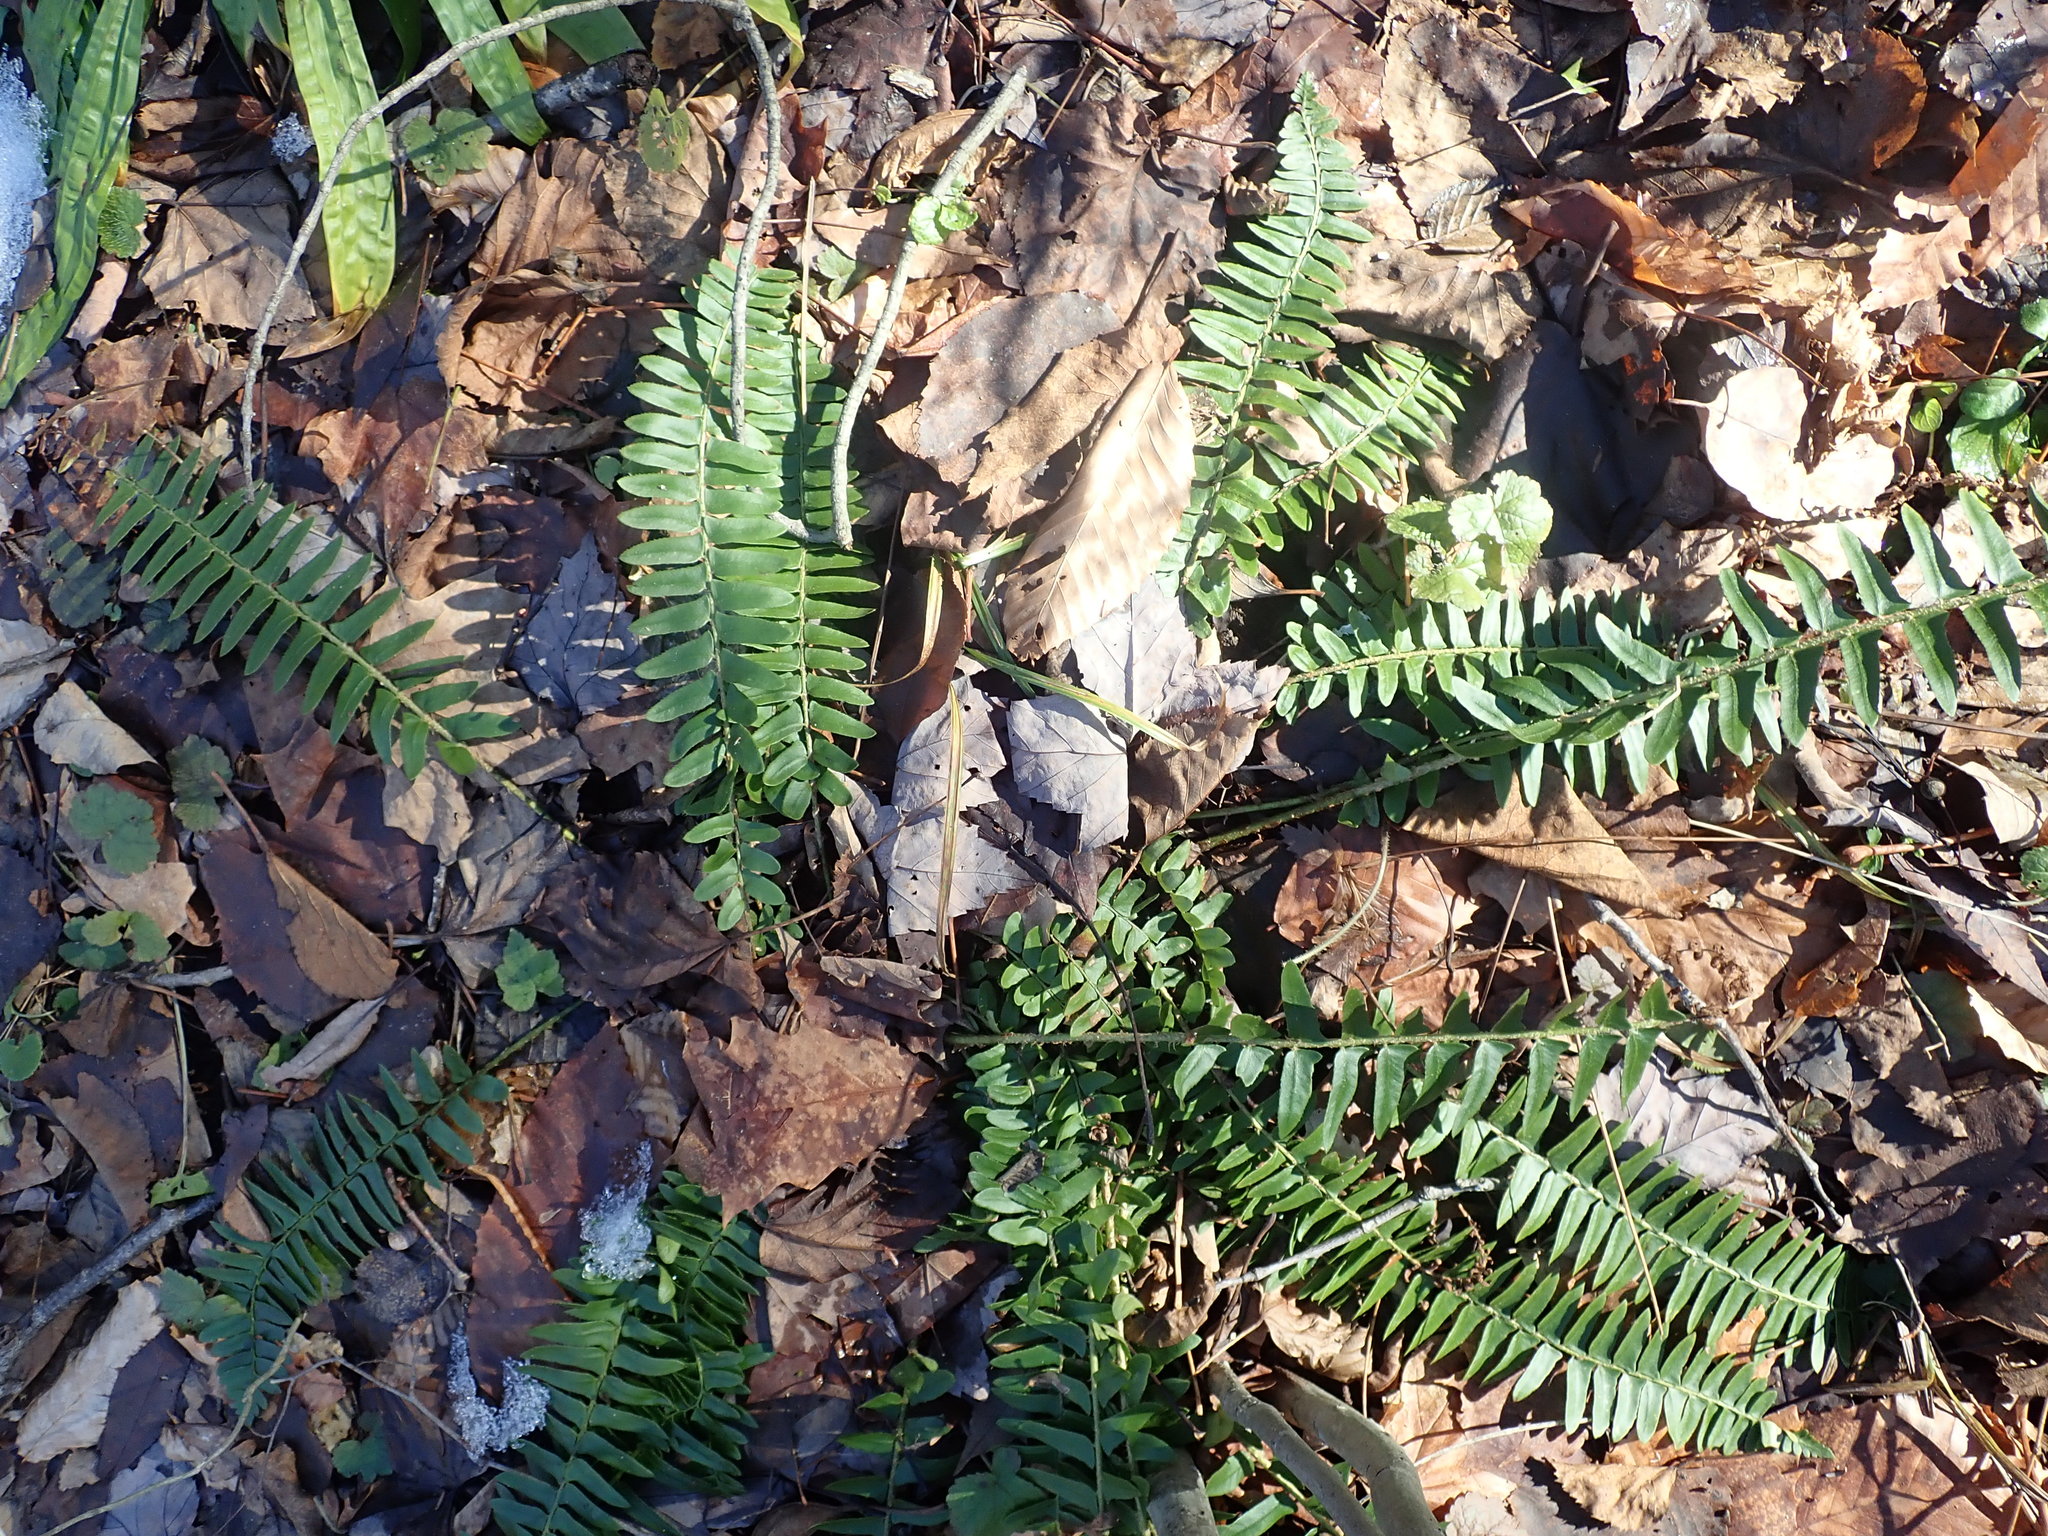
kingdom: Plantae
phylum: Tracheophyta
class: Polypodiopsida
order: Polypodiales
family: Dryopteridaceae
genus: Polystichum
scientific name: Polystichum acrostichoides
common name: Christmas fern
